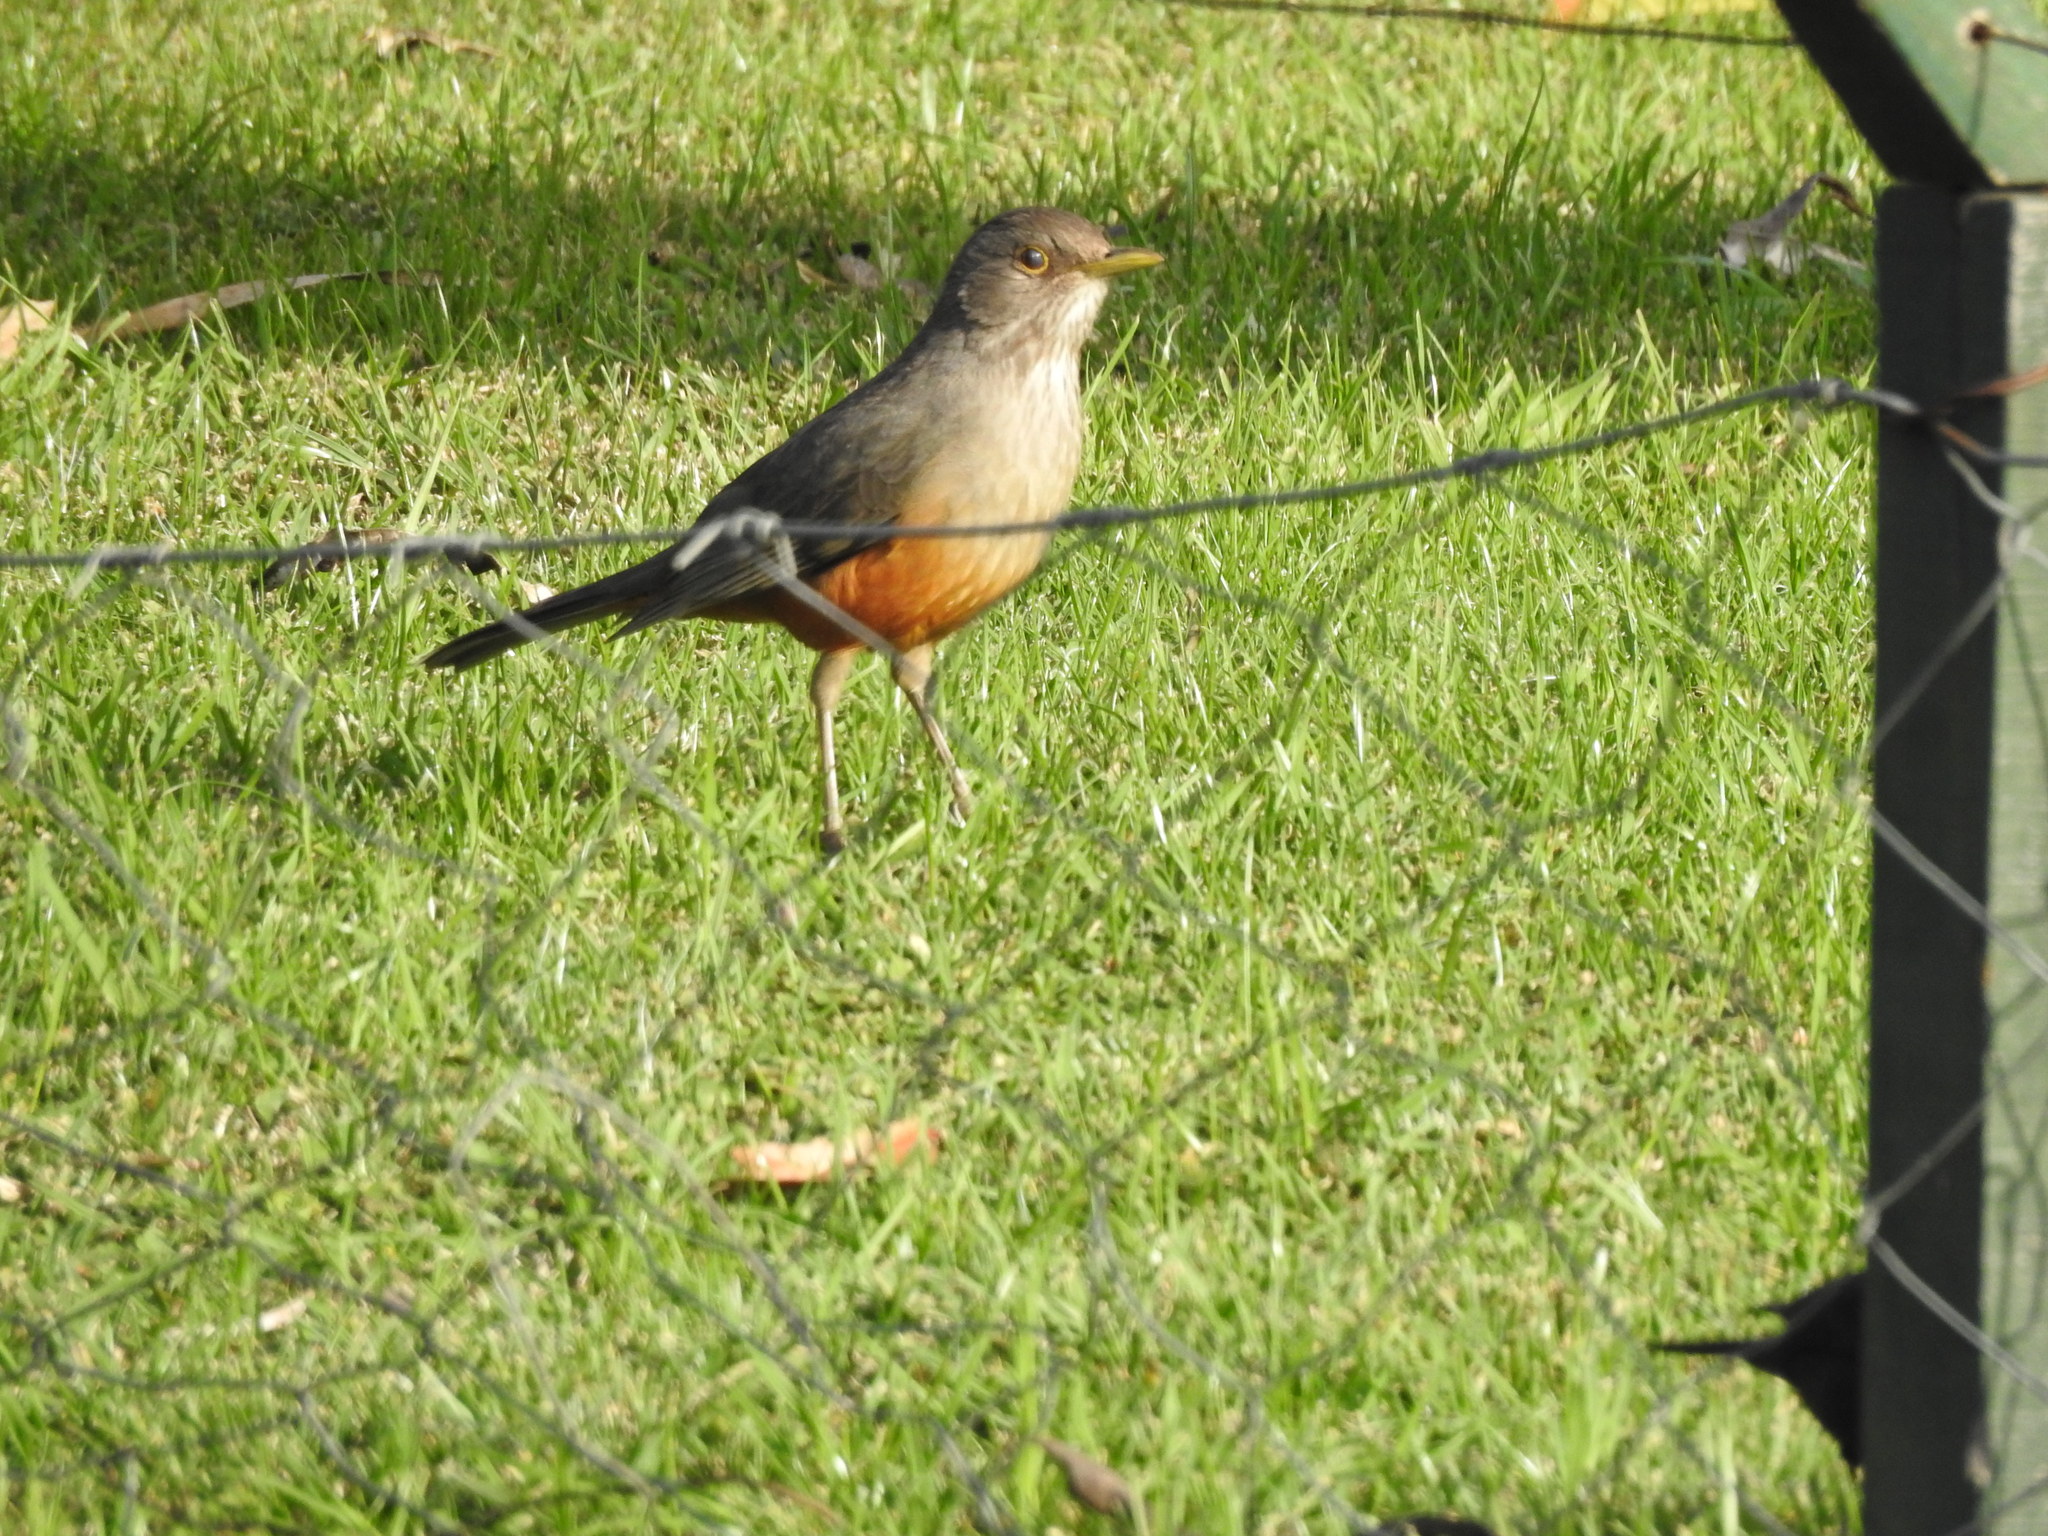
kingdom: Animalia
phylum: Chordata
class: Aves
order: Passeriformes
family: Turdidae
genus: Turdus
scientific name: Turdus rufiventris
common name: Rufous-bellied thrush
